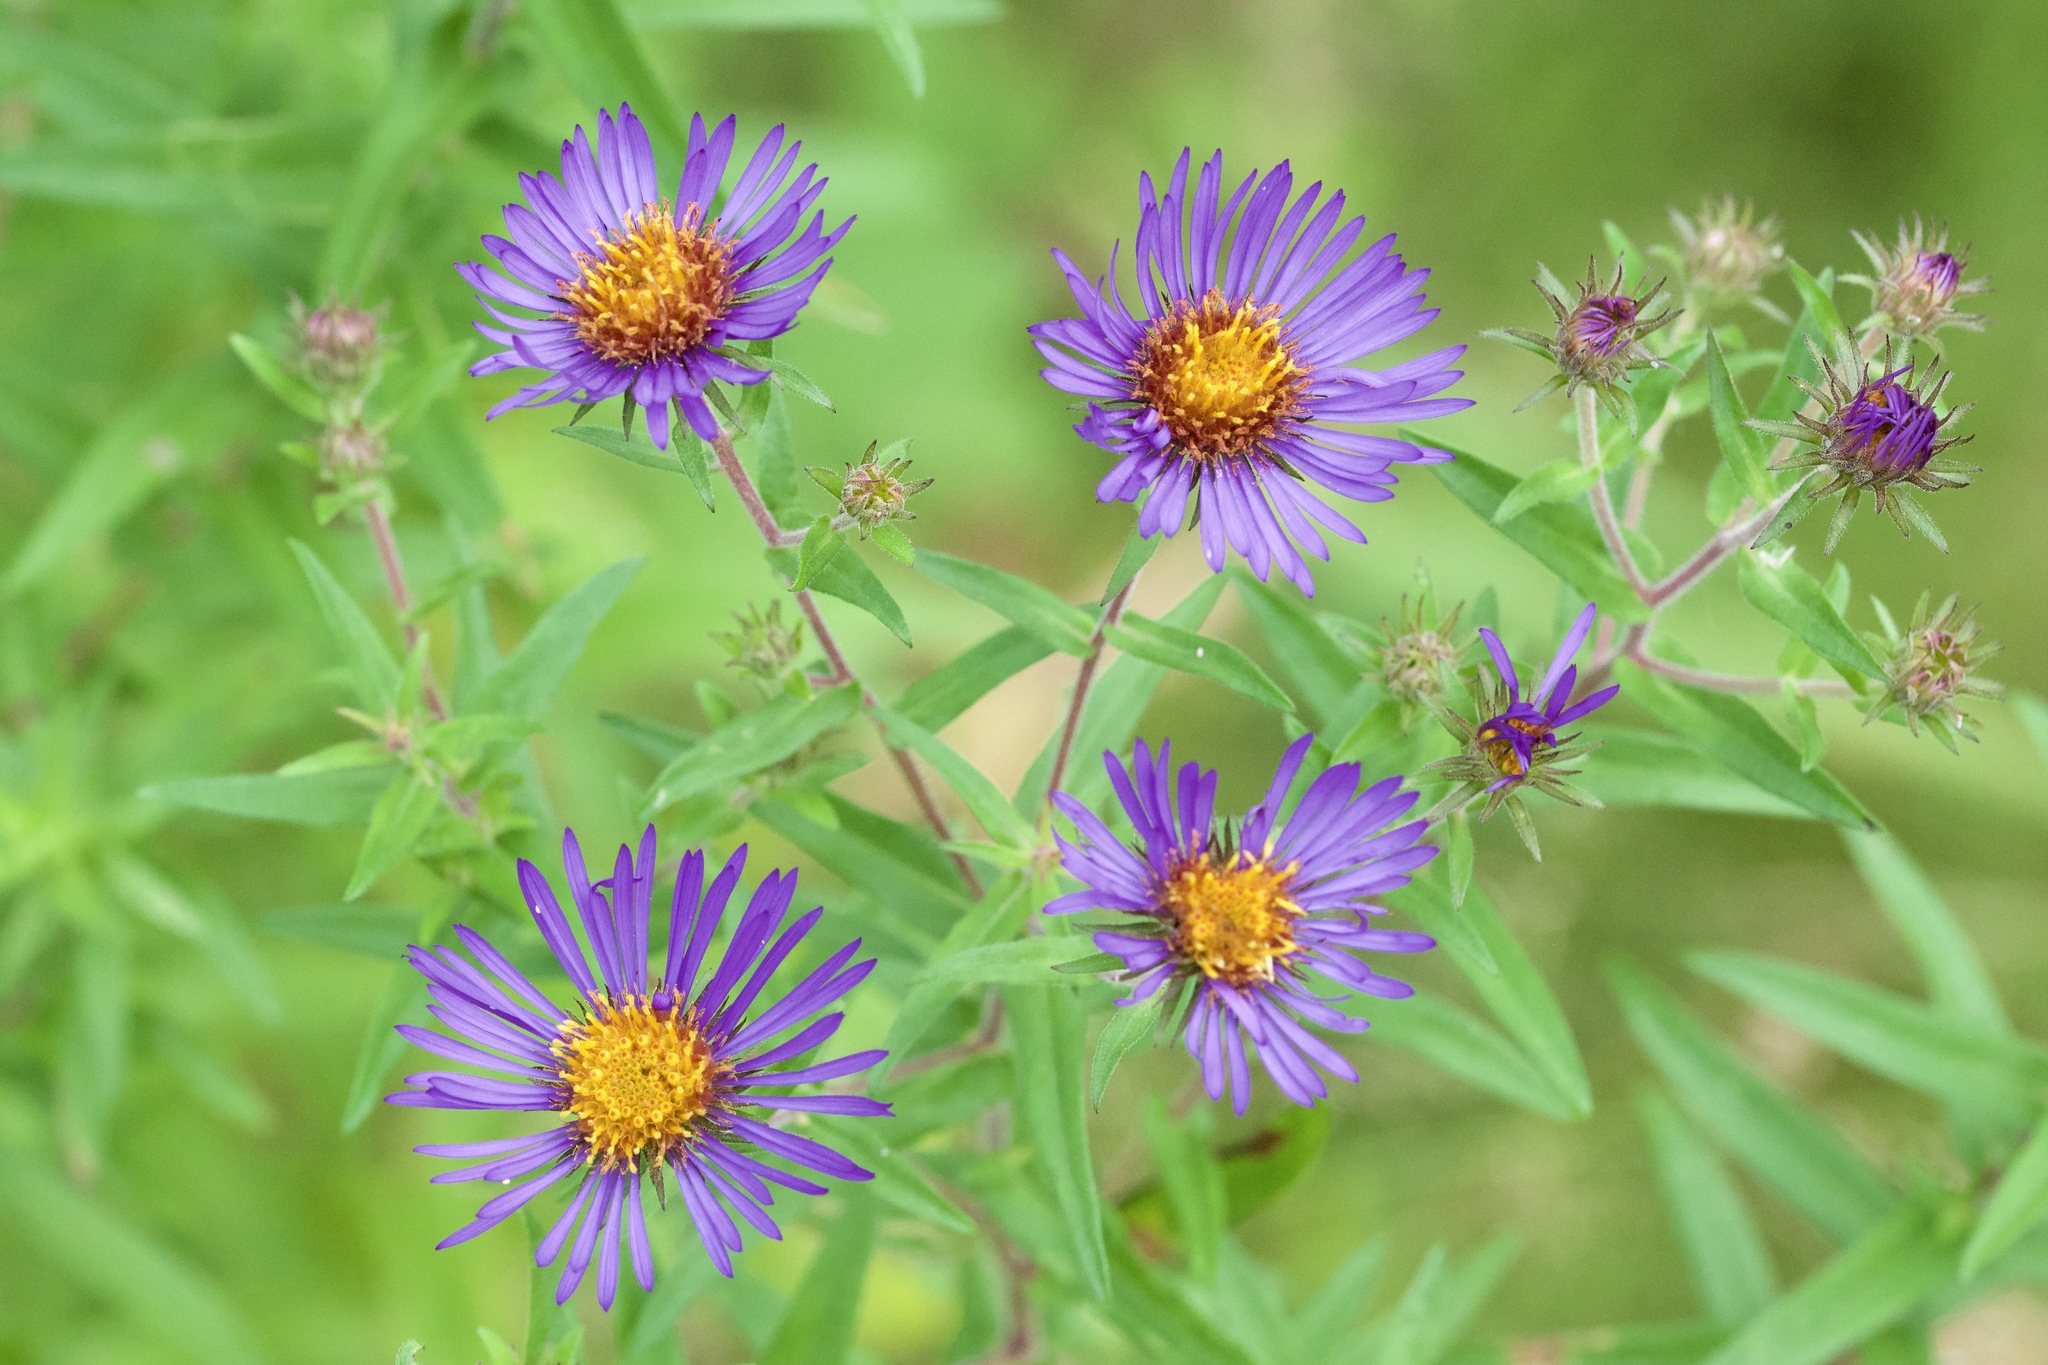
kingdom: Plantae
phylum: Tracheophyta
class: Magnoliopsida
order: Asterales
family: Asteraceae
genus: Symphyotrichum
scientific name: Symphyotrichum novae-angliae
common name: Michaelmas daisy
